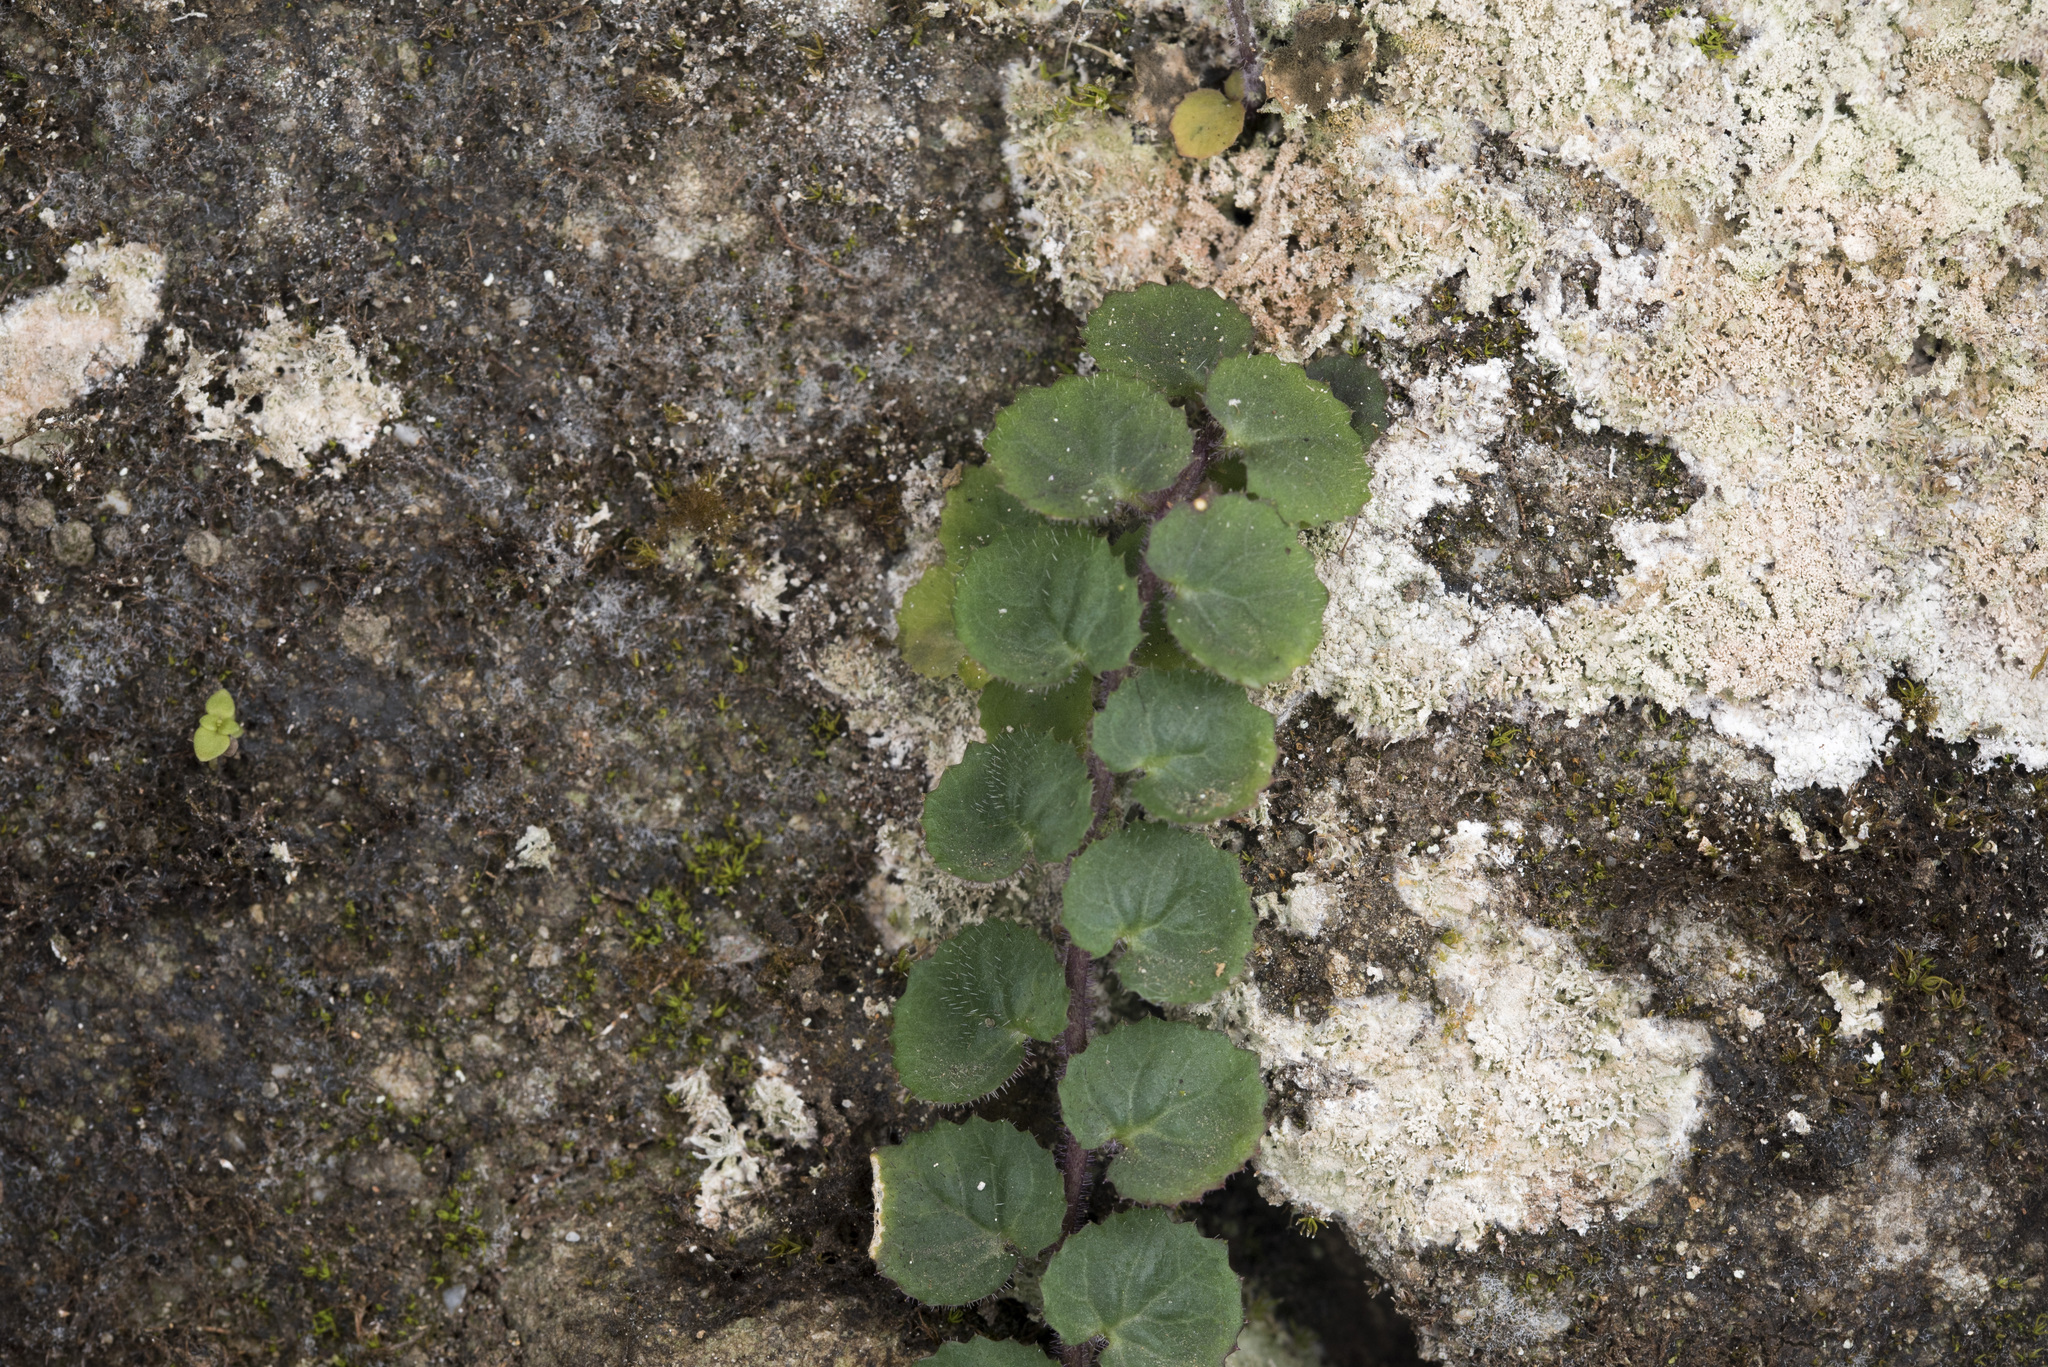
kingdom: Plantae
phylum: Tracheophyta
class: Magnoliopsida
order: Asterales
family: Campanulaceae
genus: Lobelia
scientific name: Lobelia nummularia
